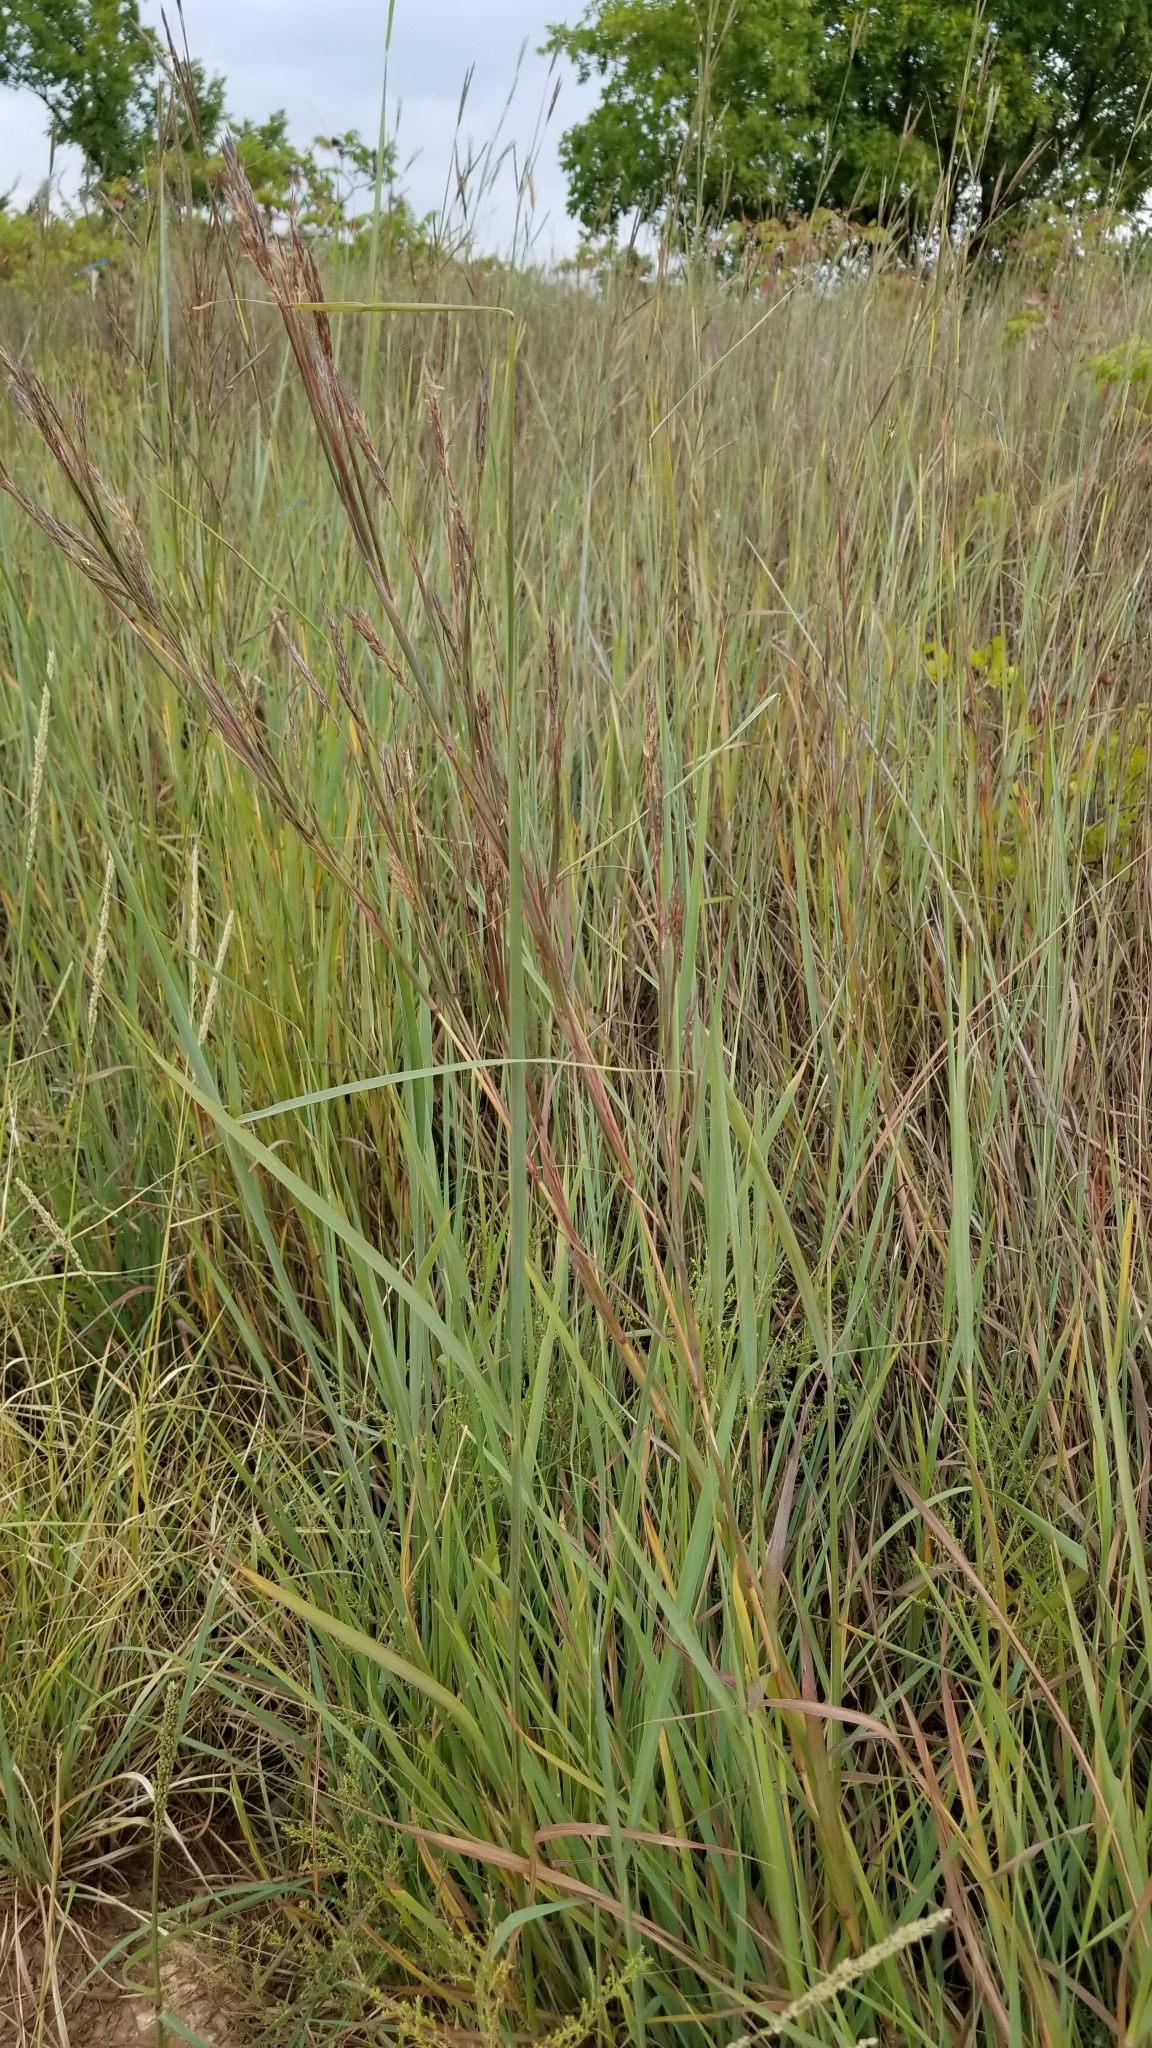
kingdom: Plantae
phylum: Tracheophyta
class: Liliopsida
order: Poales
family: Poaceae
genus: Andropogon
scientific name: Andropogon gerardi
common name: Big bluestem
